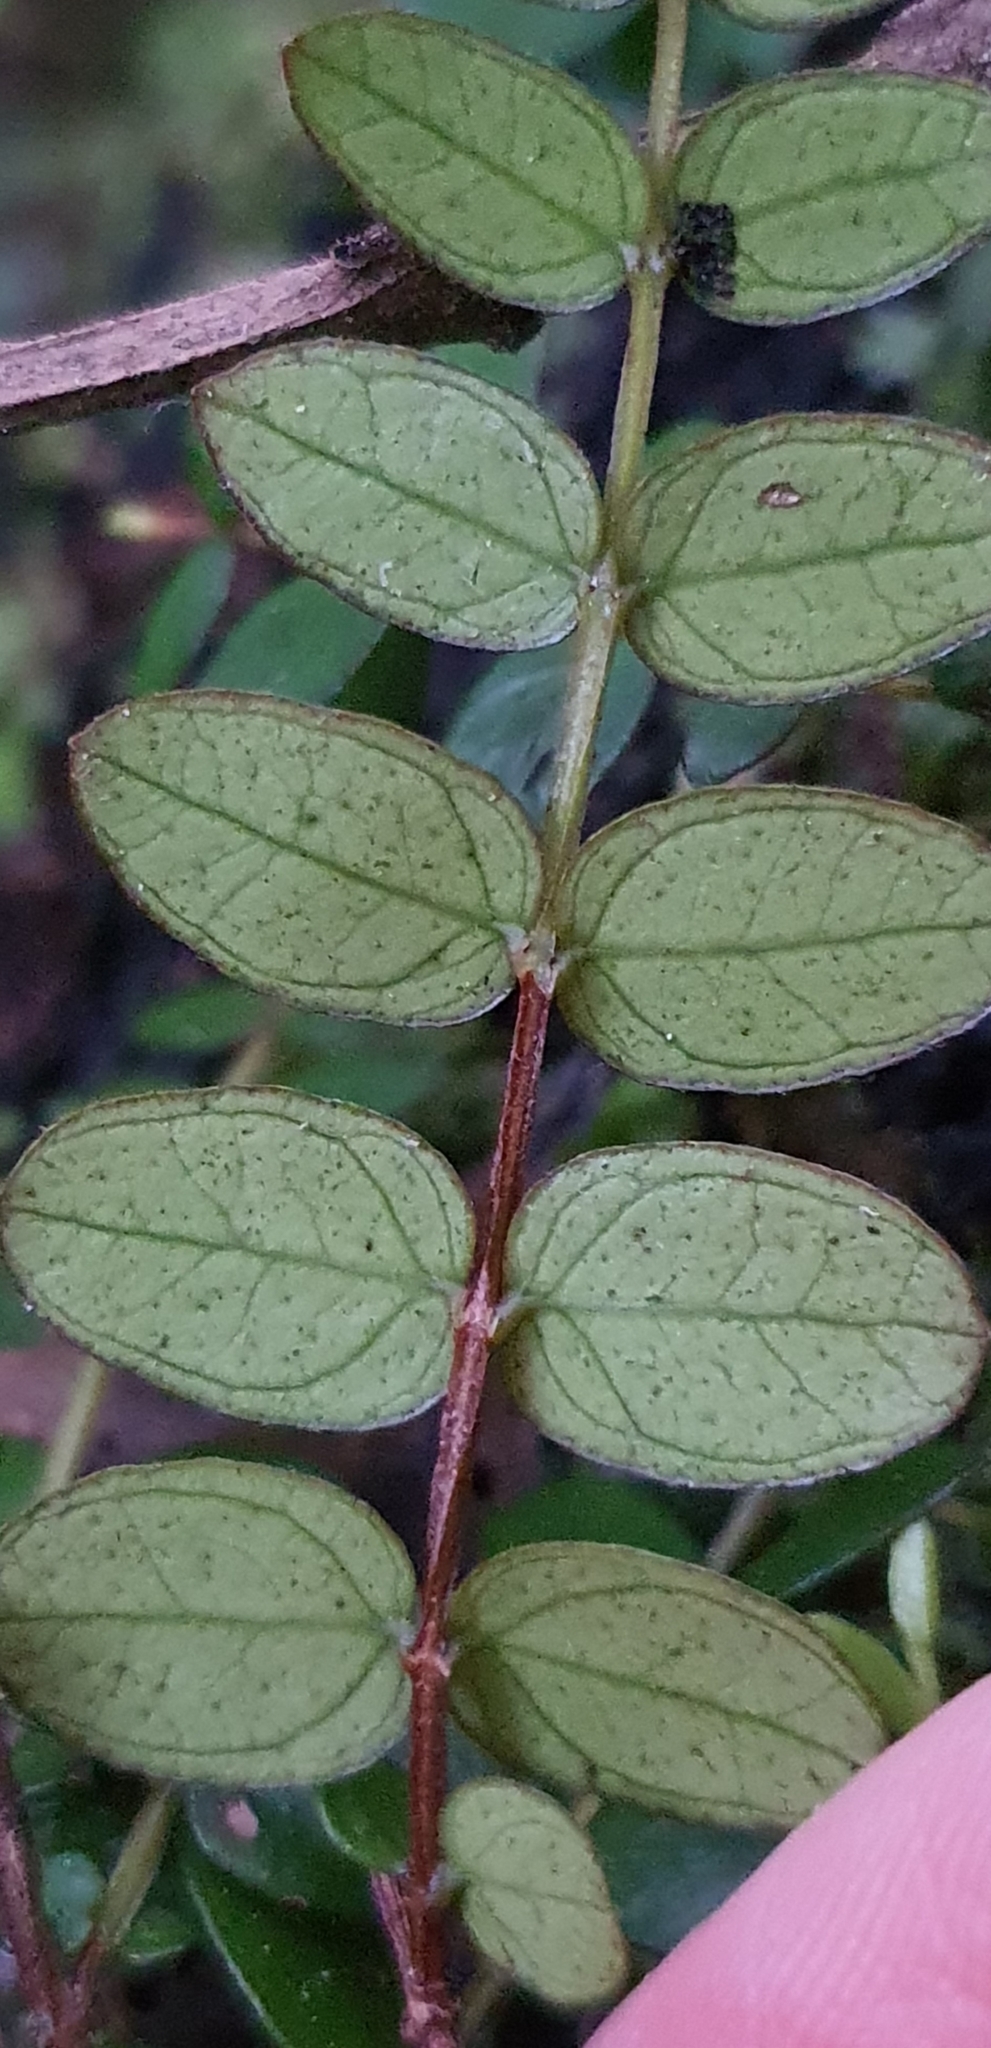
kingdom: Plantae
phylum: Tracheophyta
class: Magnoliopsida
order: Myrtales
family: Myrtaceae
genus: Metrosideros
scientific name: Metrosideros diffusa
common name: Small ratavine
